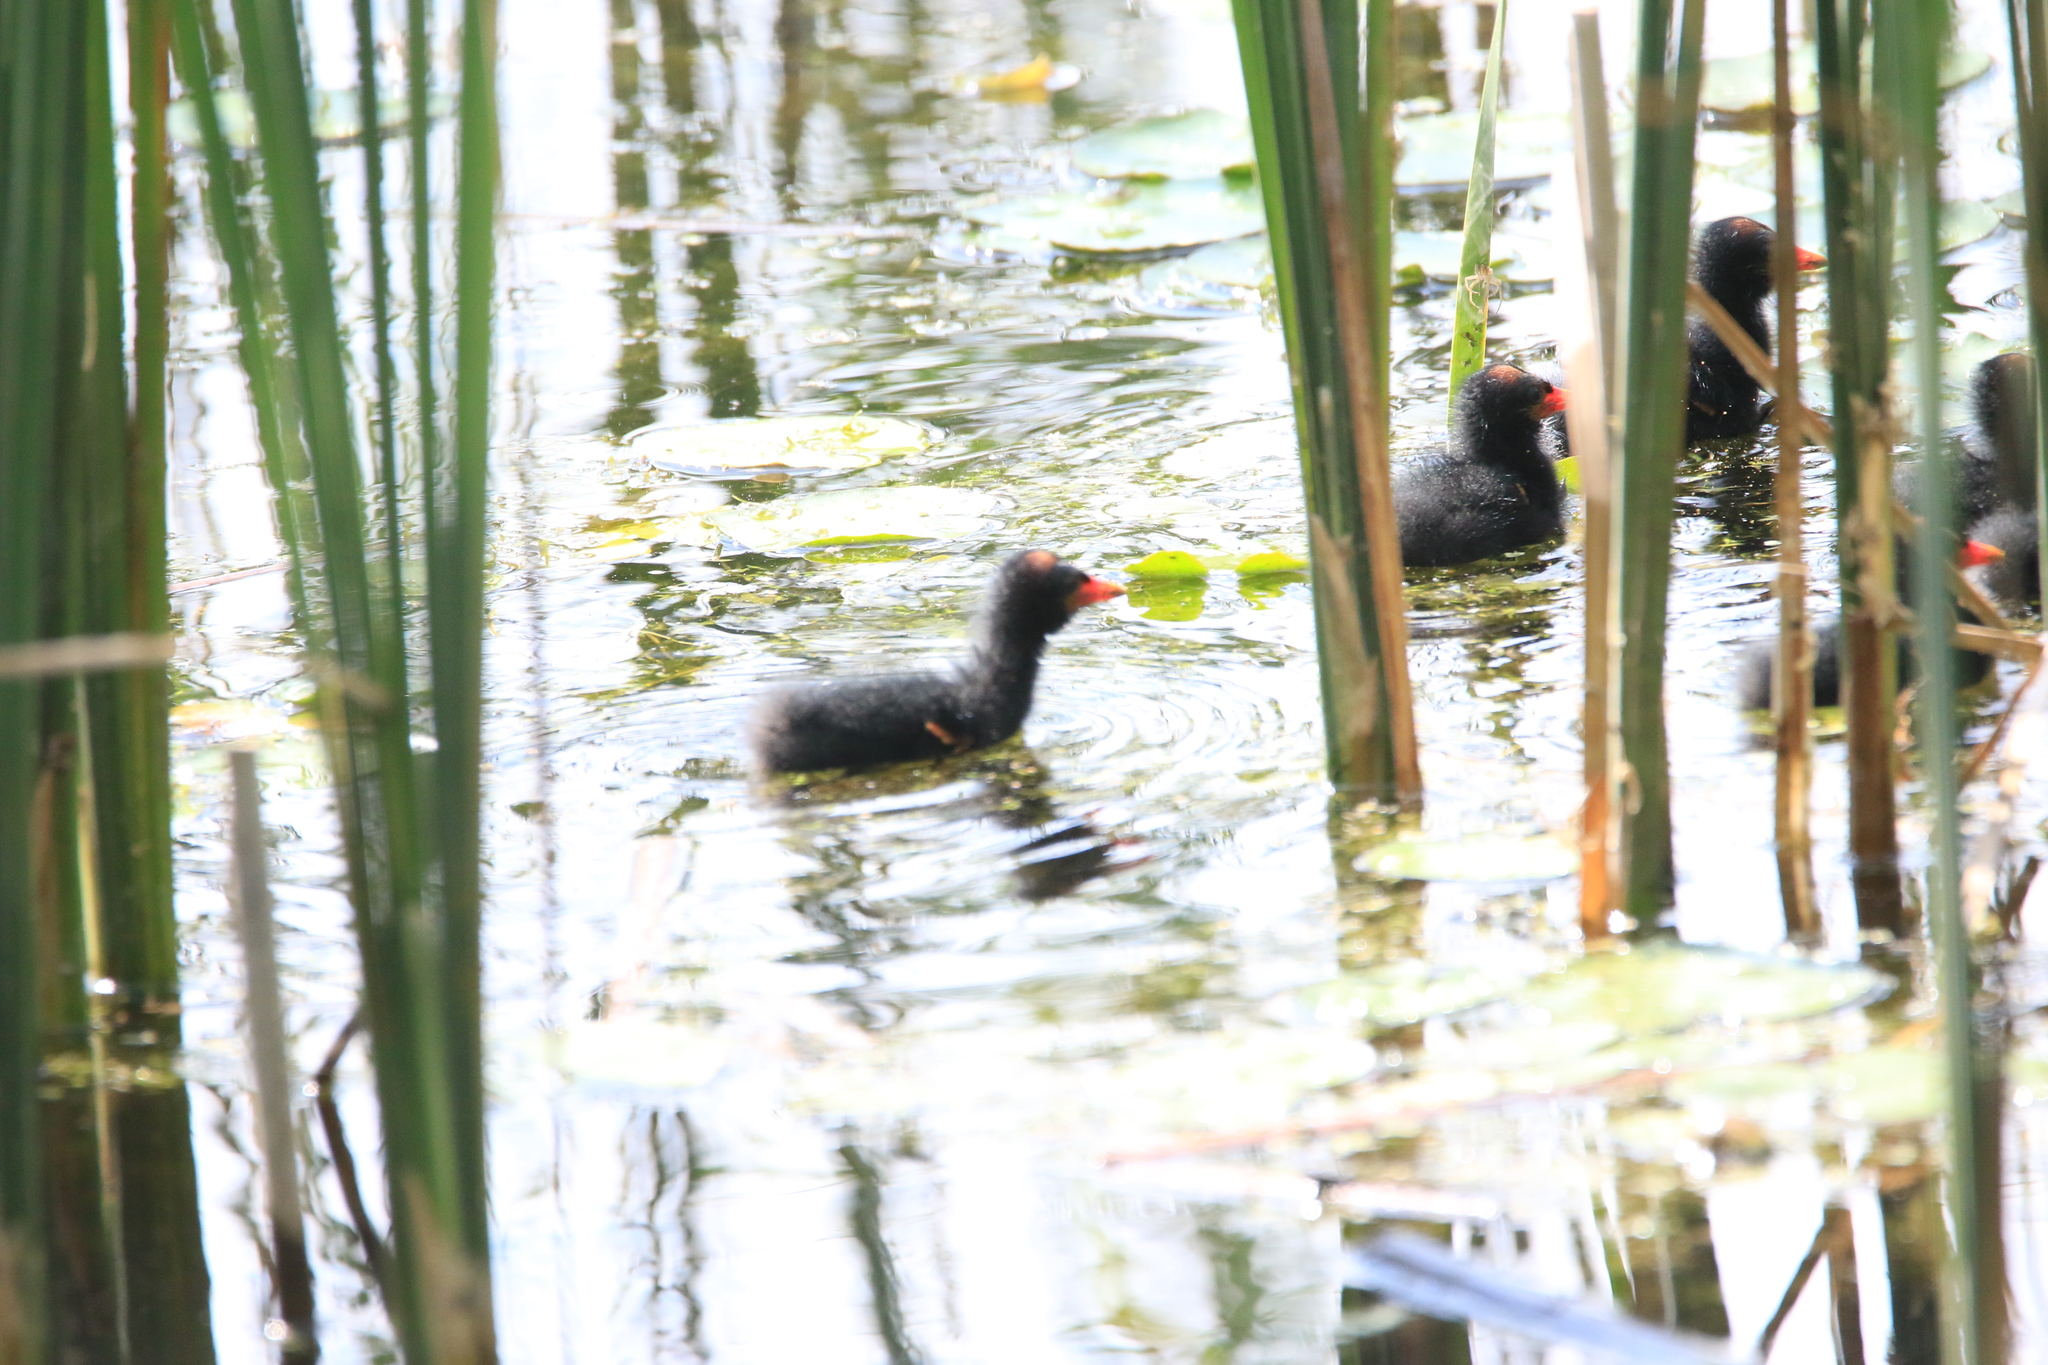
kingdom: Animalia
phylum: Chordata
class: Aves
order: Gruiformes
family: Rallidae
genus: Gallinula
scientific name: Gallinula chloropus
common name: Common moorhen
